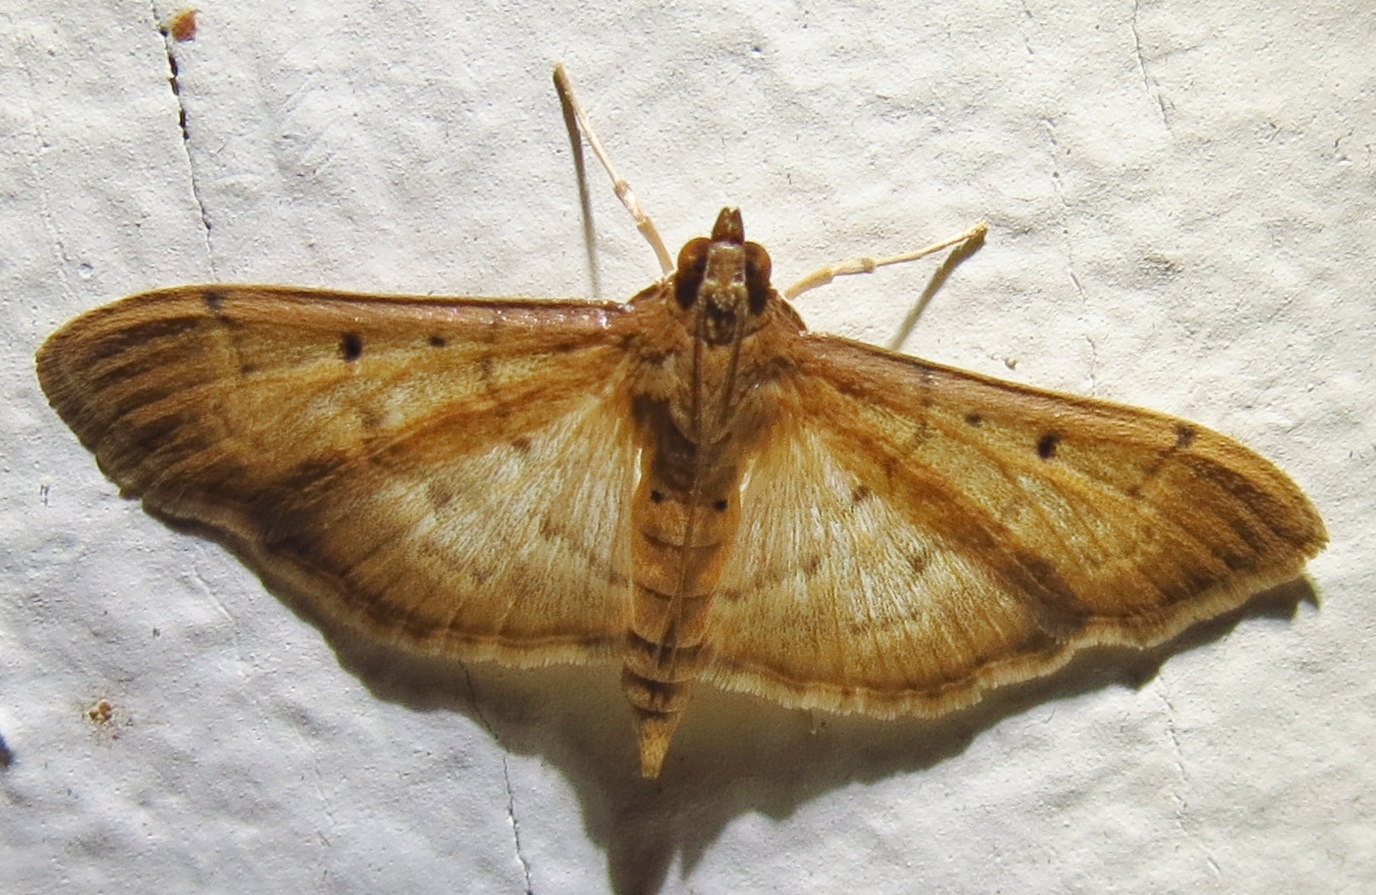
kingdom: Animalia
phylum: Arthropoda
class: Insecta
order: Lepidoptera
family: Crambidae
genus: Herpetogramma
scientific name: Herpetogramma bipunctalis
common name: Southern beet webworm
